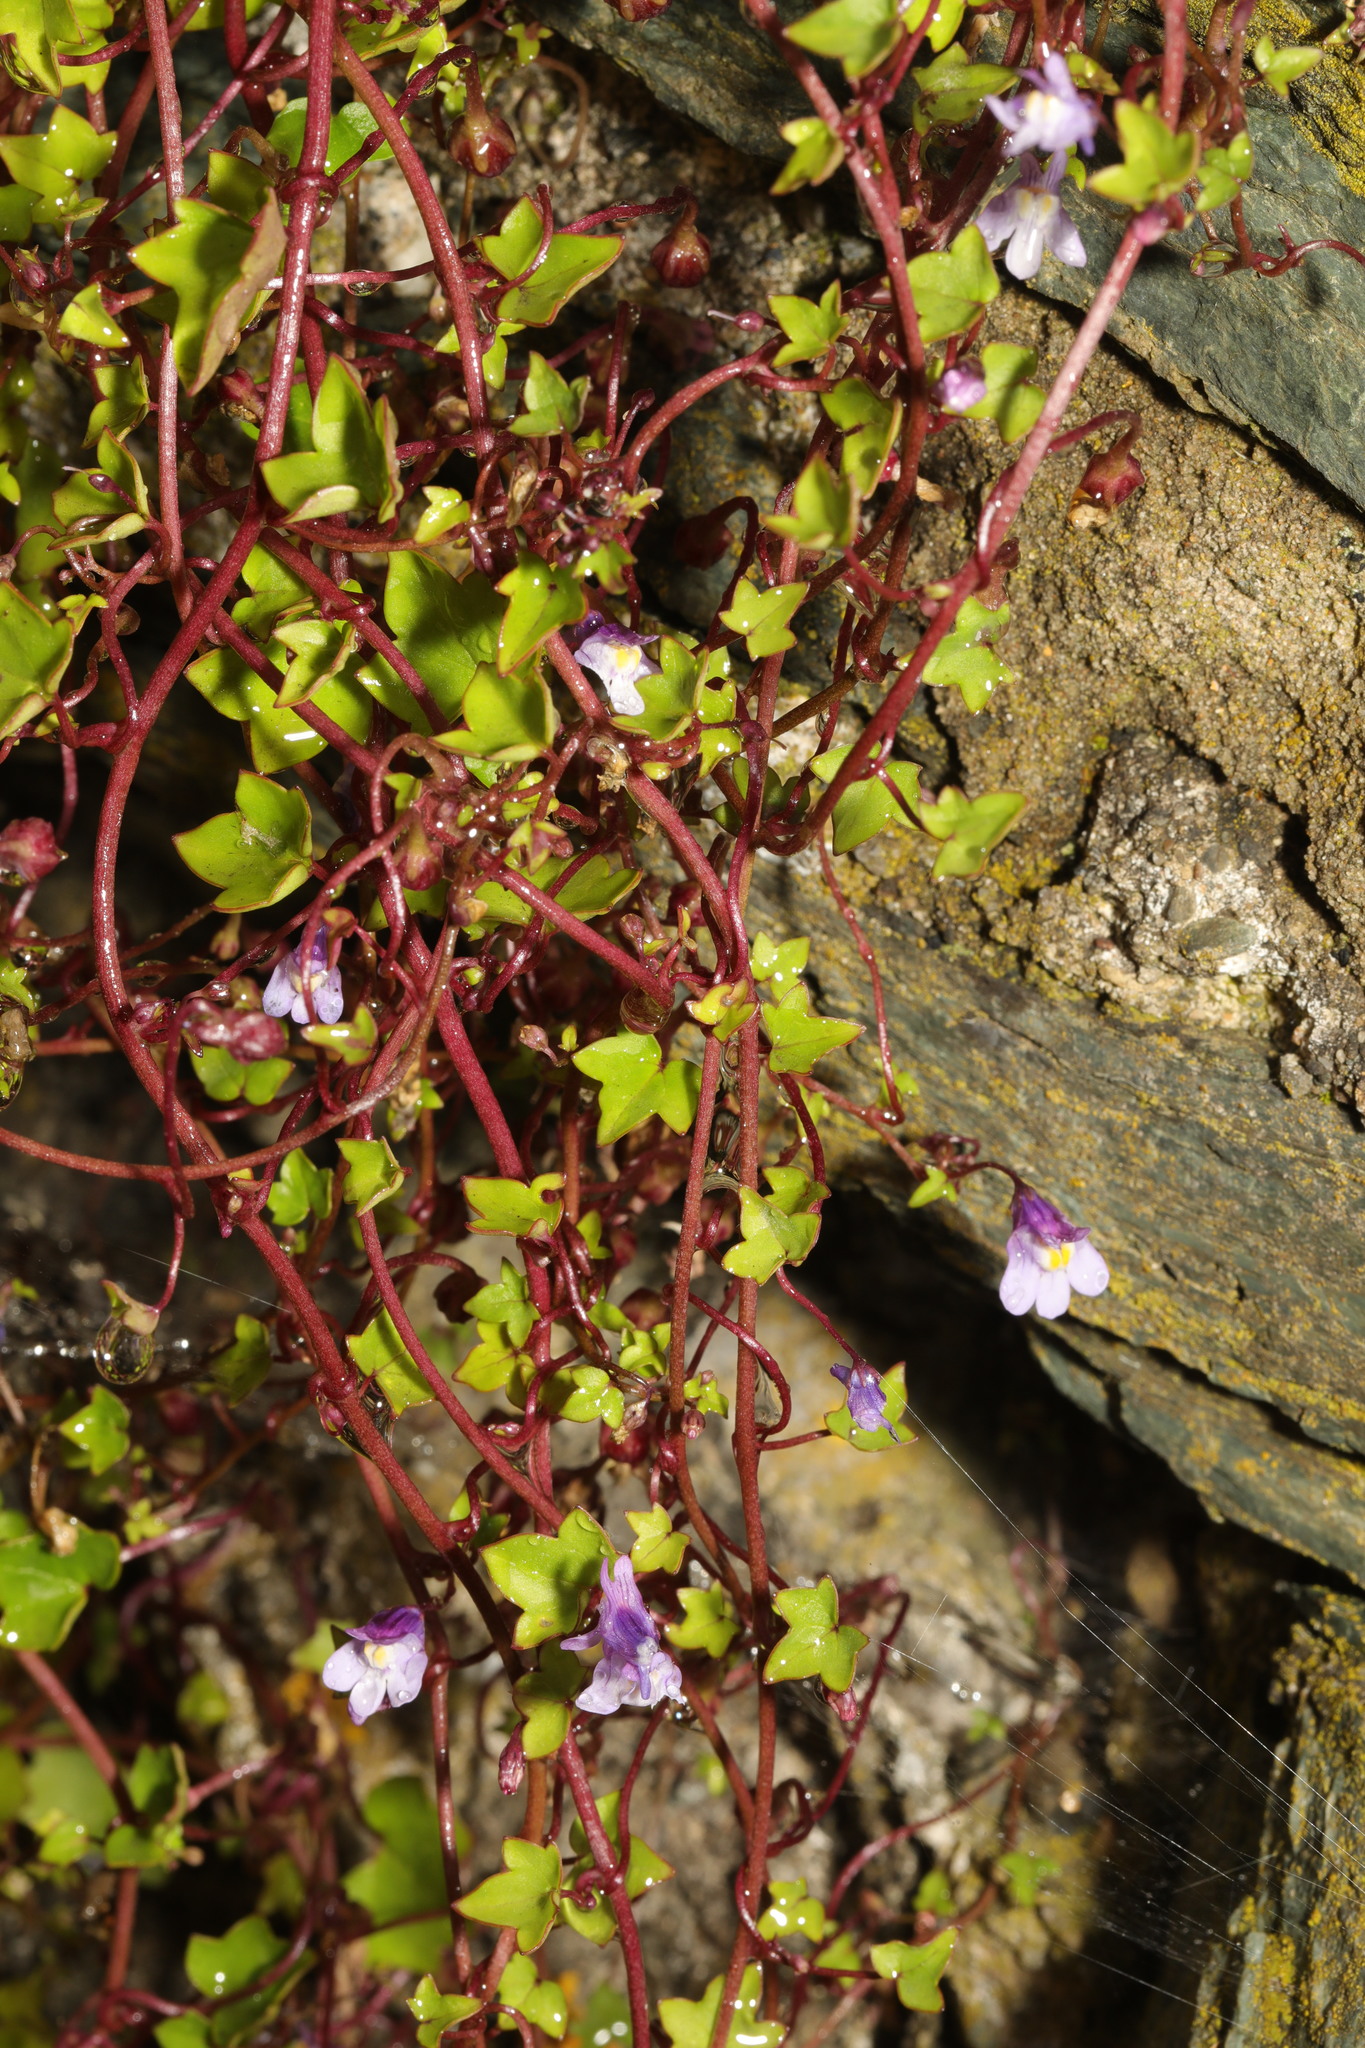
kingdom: Plantae
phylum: Tracheophyta
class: Magnoliopsida
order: Lamiales
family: Plantaginaceae
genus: Cymbalaria
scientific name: Cymbalaria muralis
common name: Ivy-leaved toadflax
